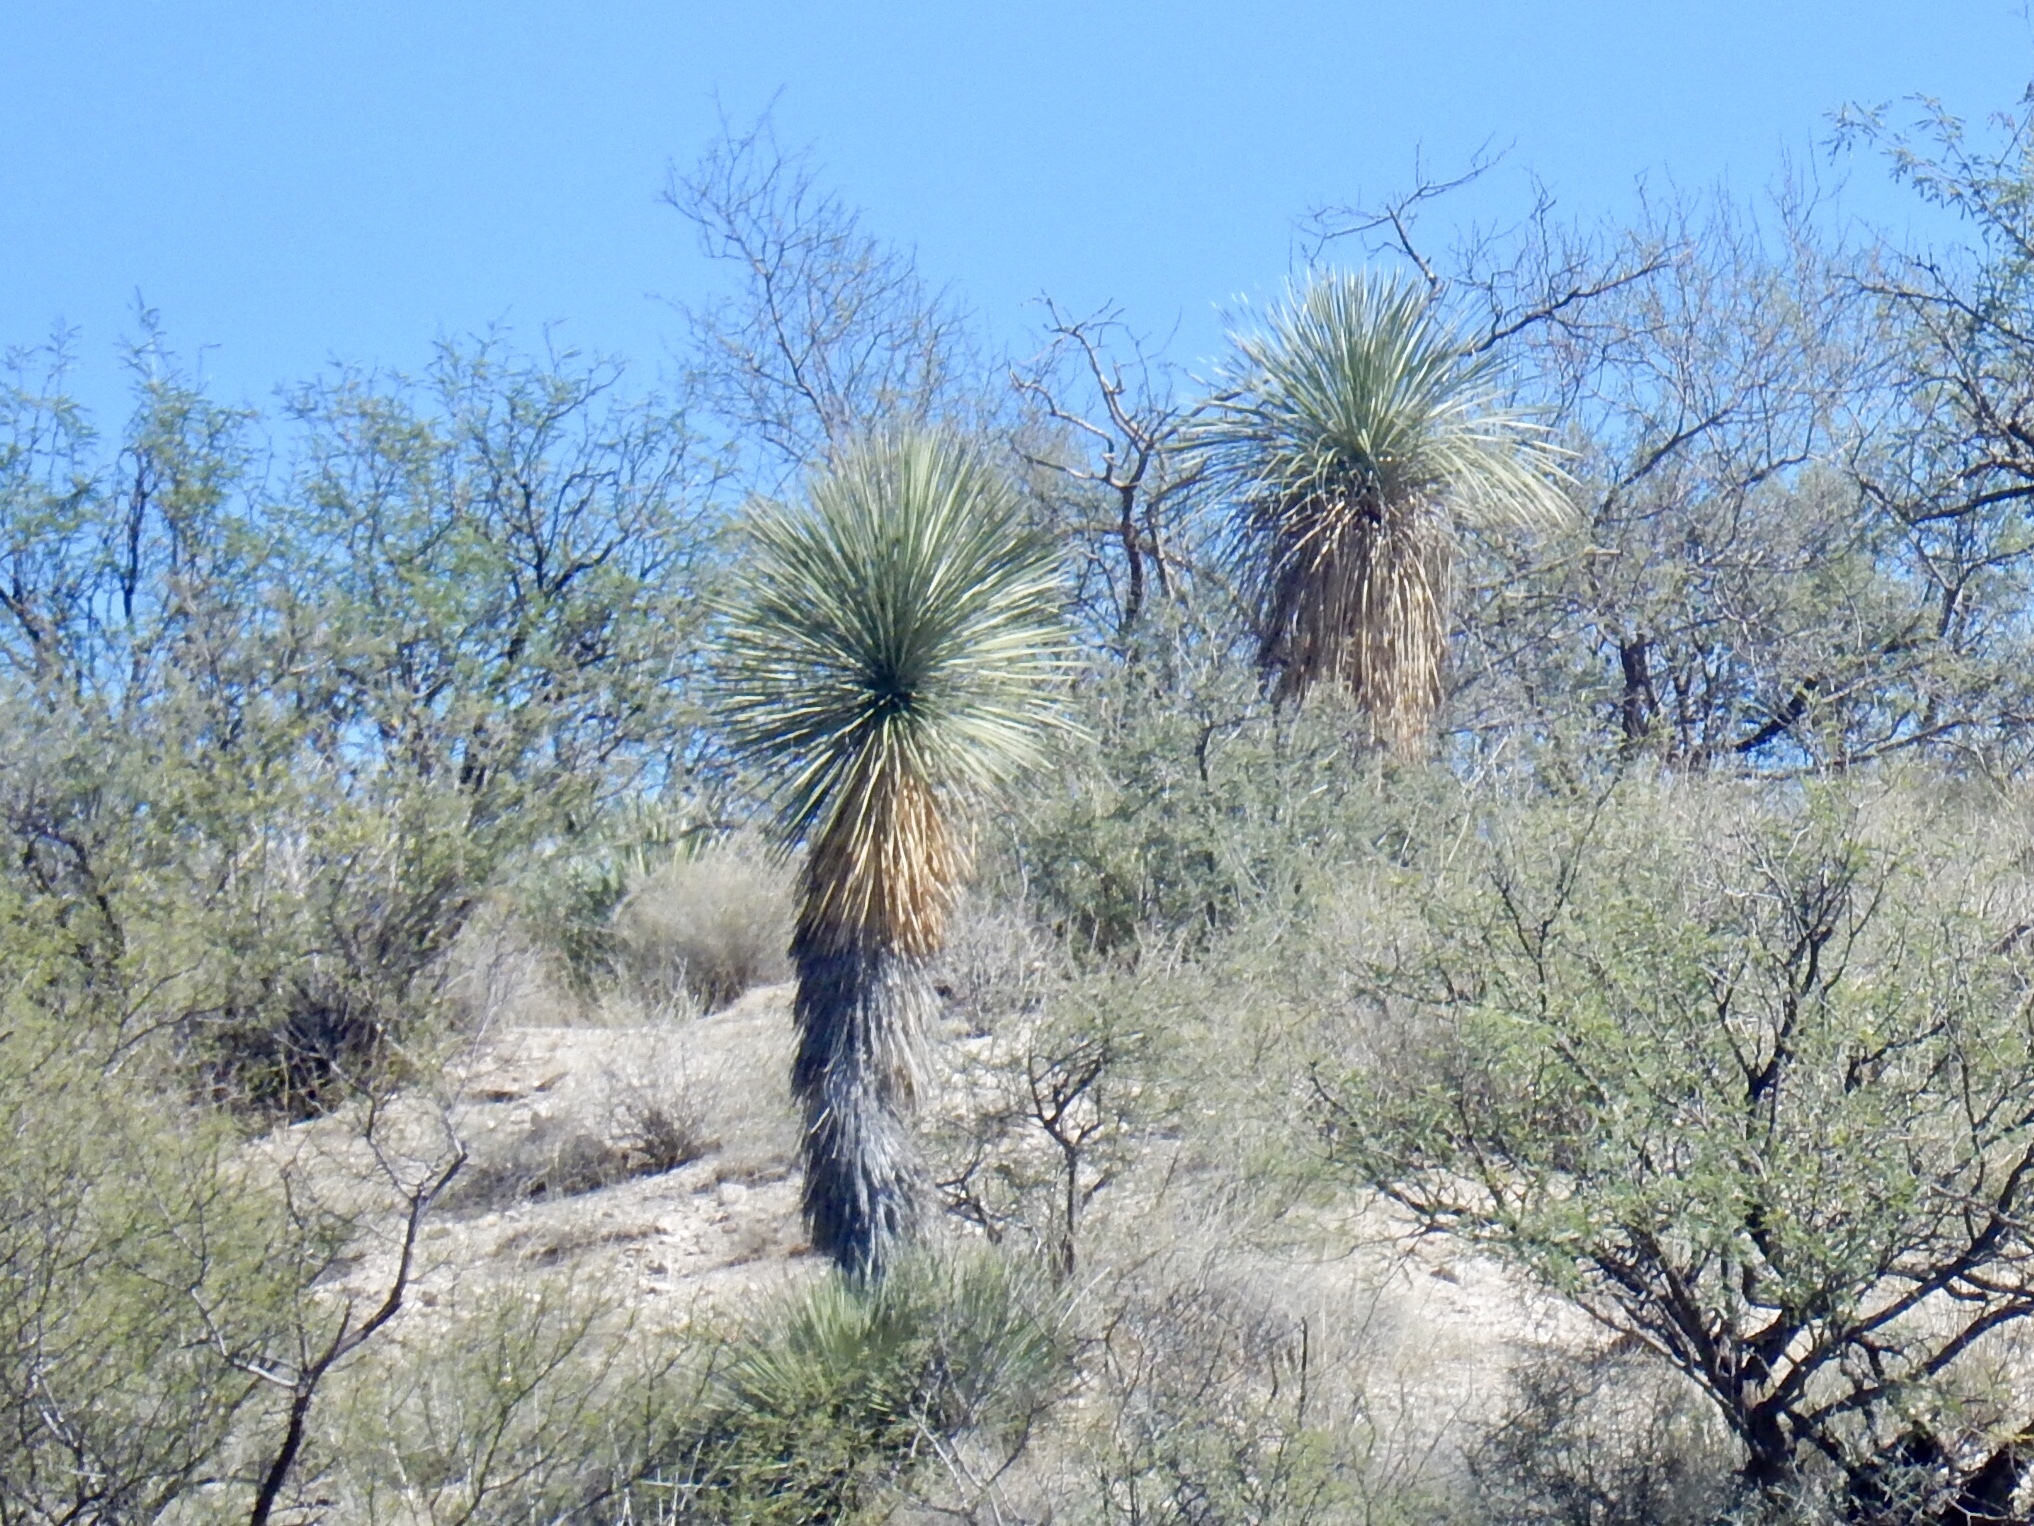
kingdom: Plantae
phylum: Tracheophyta
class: Liliopsida
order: Asparagales
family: Asparagaceae
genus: Yucca
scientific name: Yucca elata
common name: Palmella
